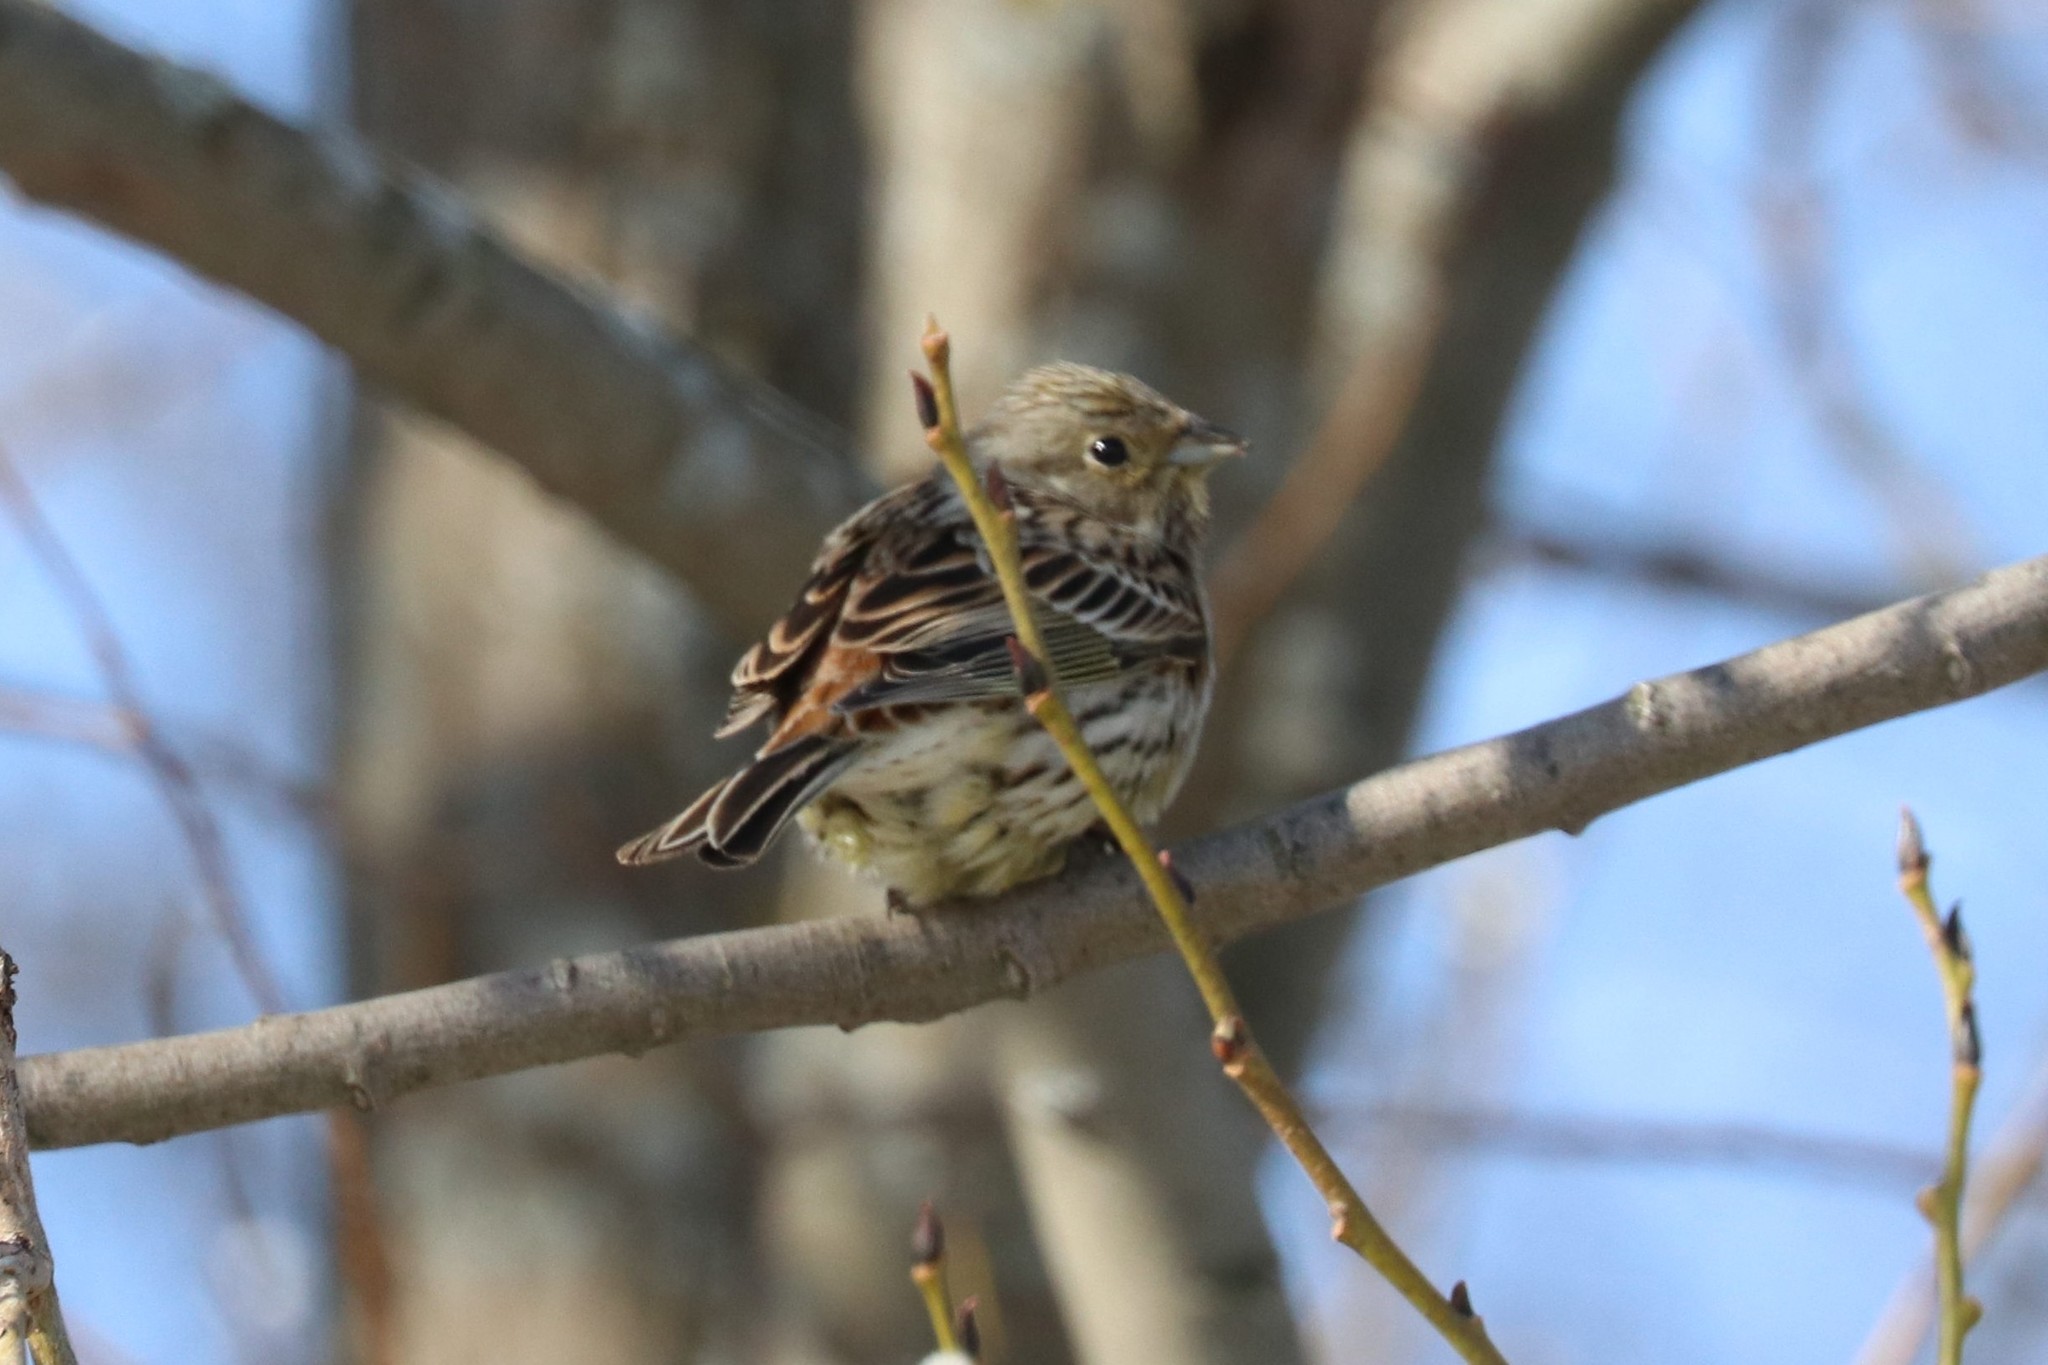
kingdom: Animalia
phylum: Chordata
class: Aves
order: Passeriformes
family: Emberizidae
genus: Emberiza
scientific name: Emberiza citrinella
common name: Yellowhammer
